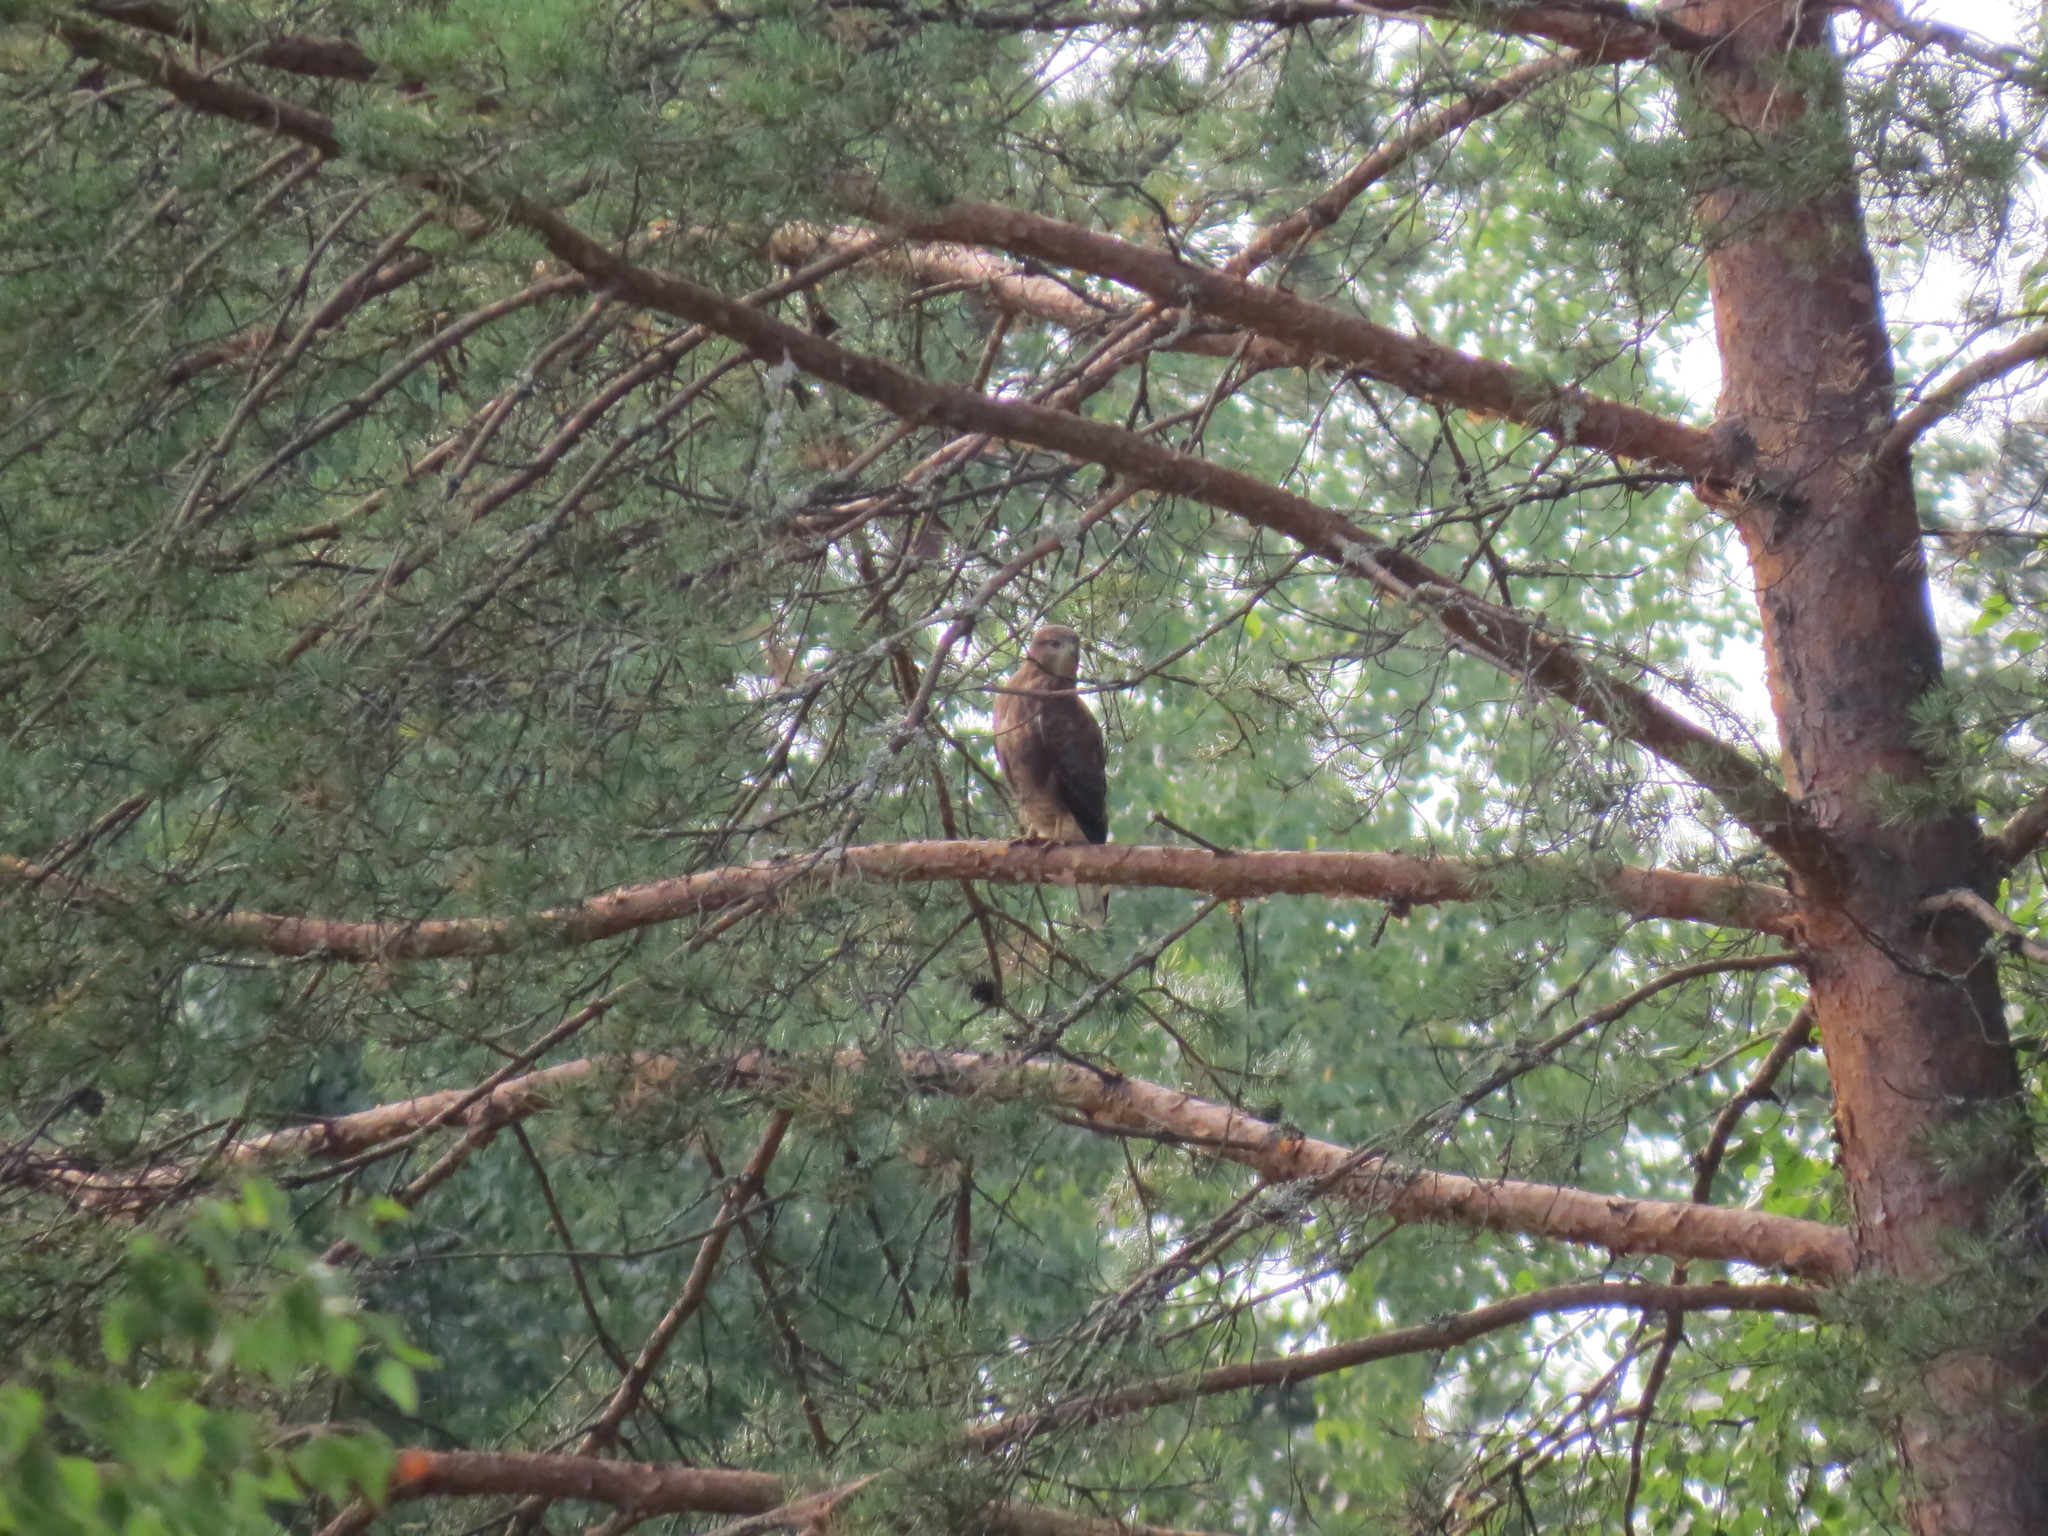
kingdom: Animalia
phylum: Chordata
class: Aves
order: Accipitriformes
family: Accipitridae
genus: Buteo
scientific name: Buteo buteo
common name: Common buzzard
